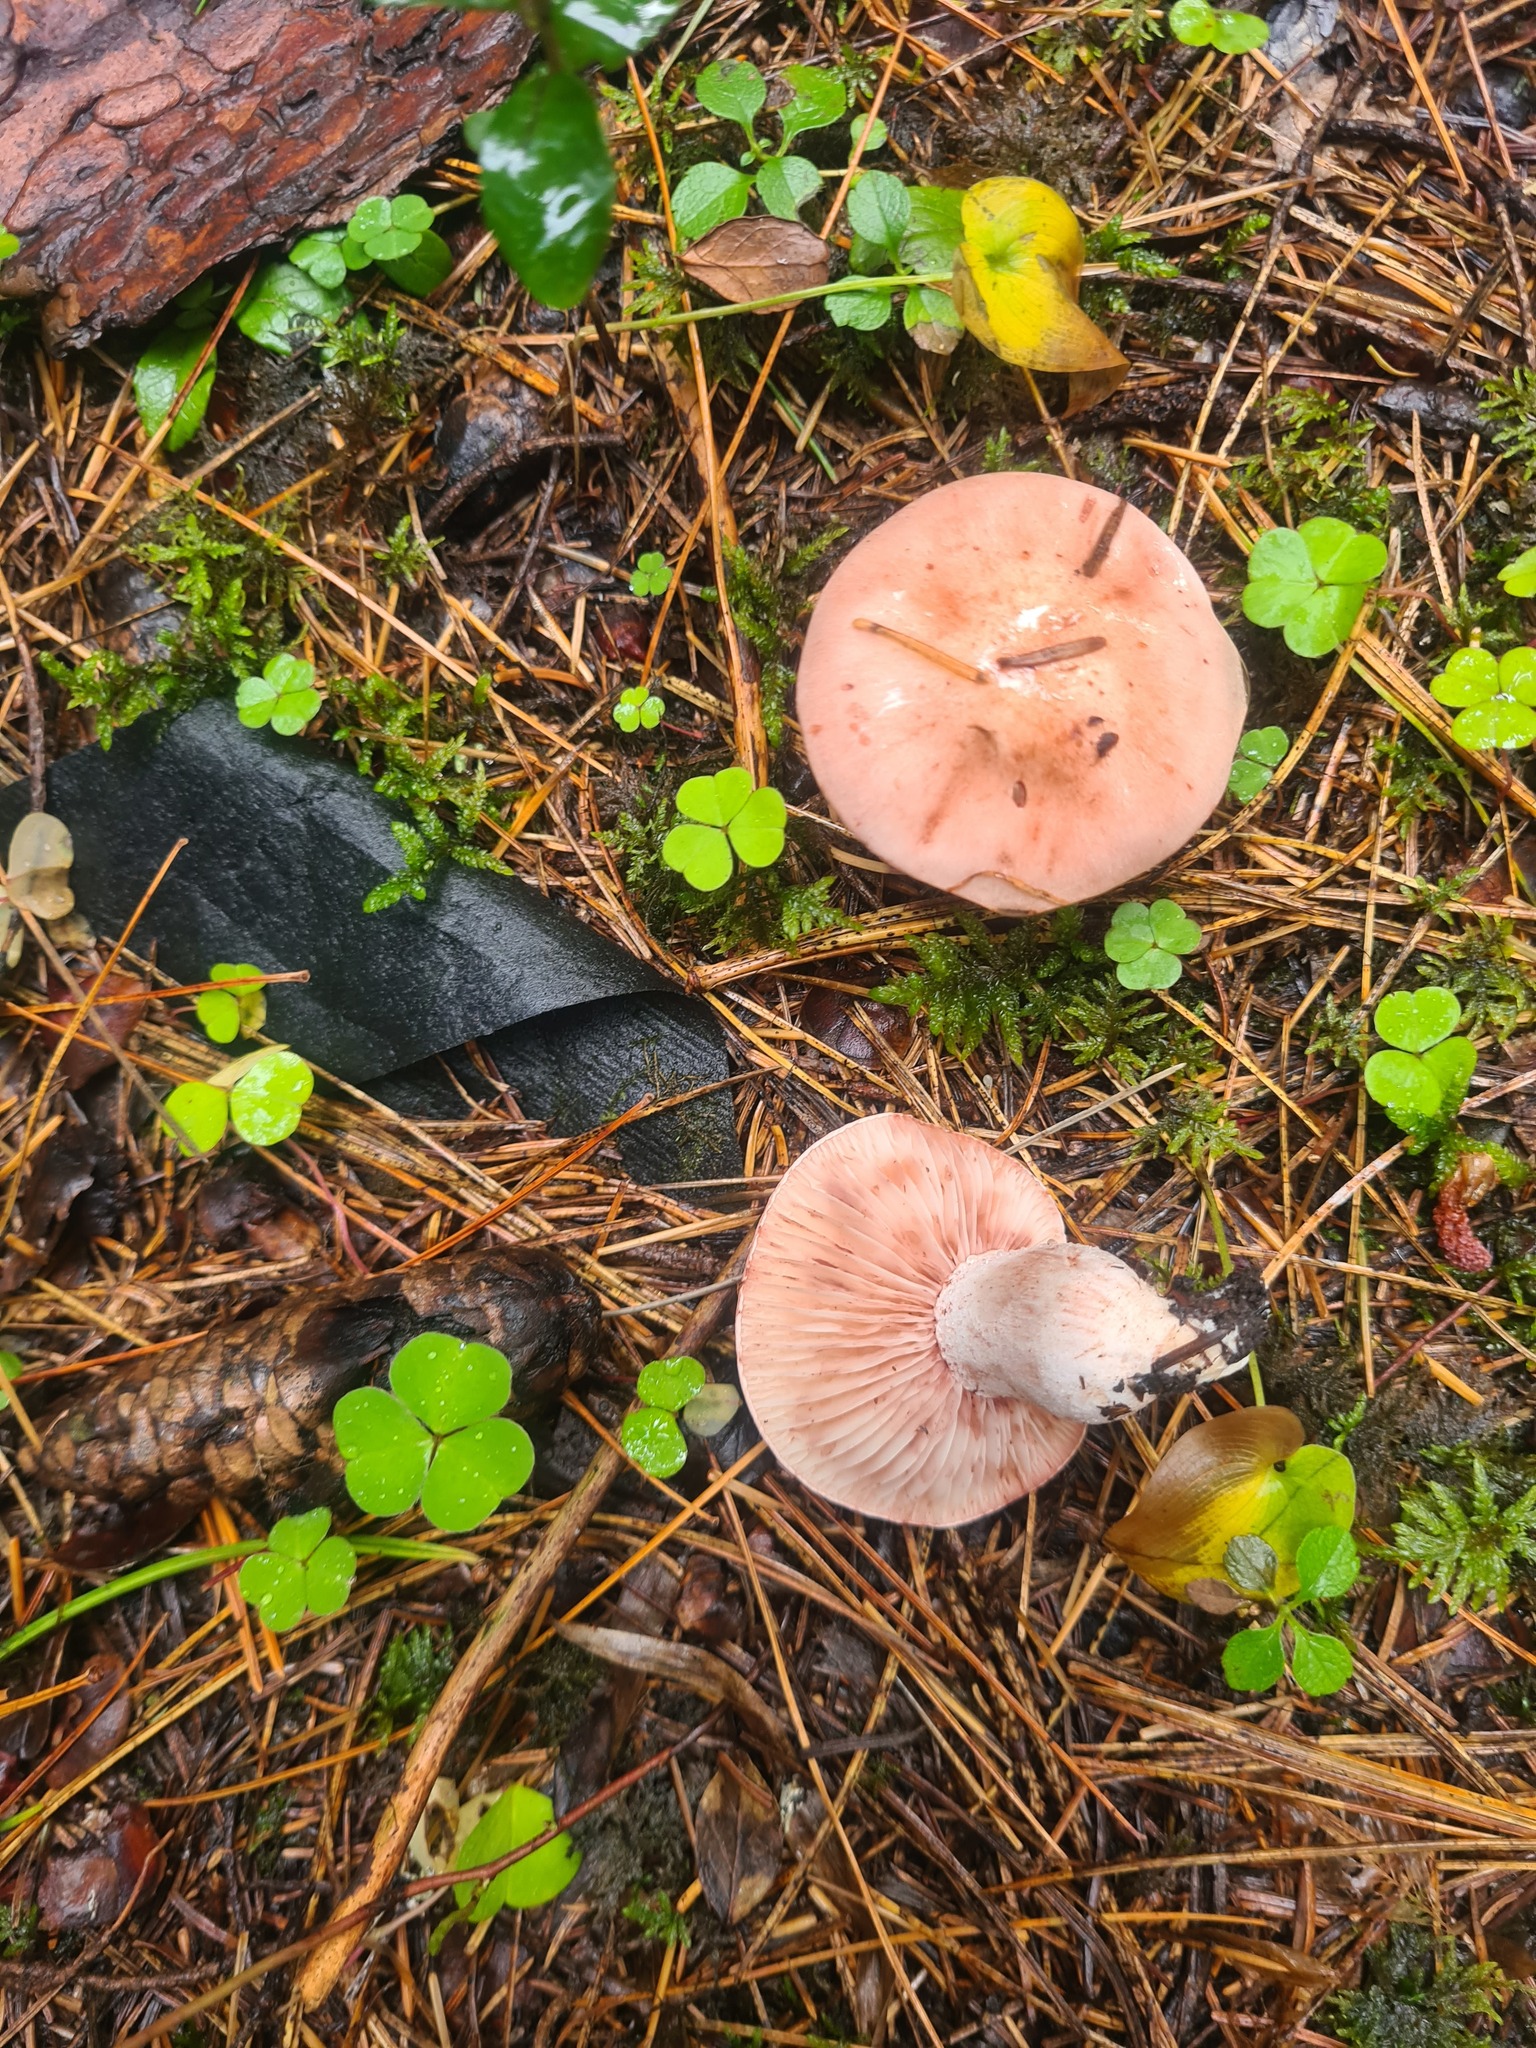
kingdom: Fungi
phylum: Basidiomycota
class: Agaricomycetes
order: Agaricales
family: Hygrophoraceae
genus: Hygrophorus
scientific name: Hygrophorus pudorinus
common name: Rosy woodwax
